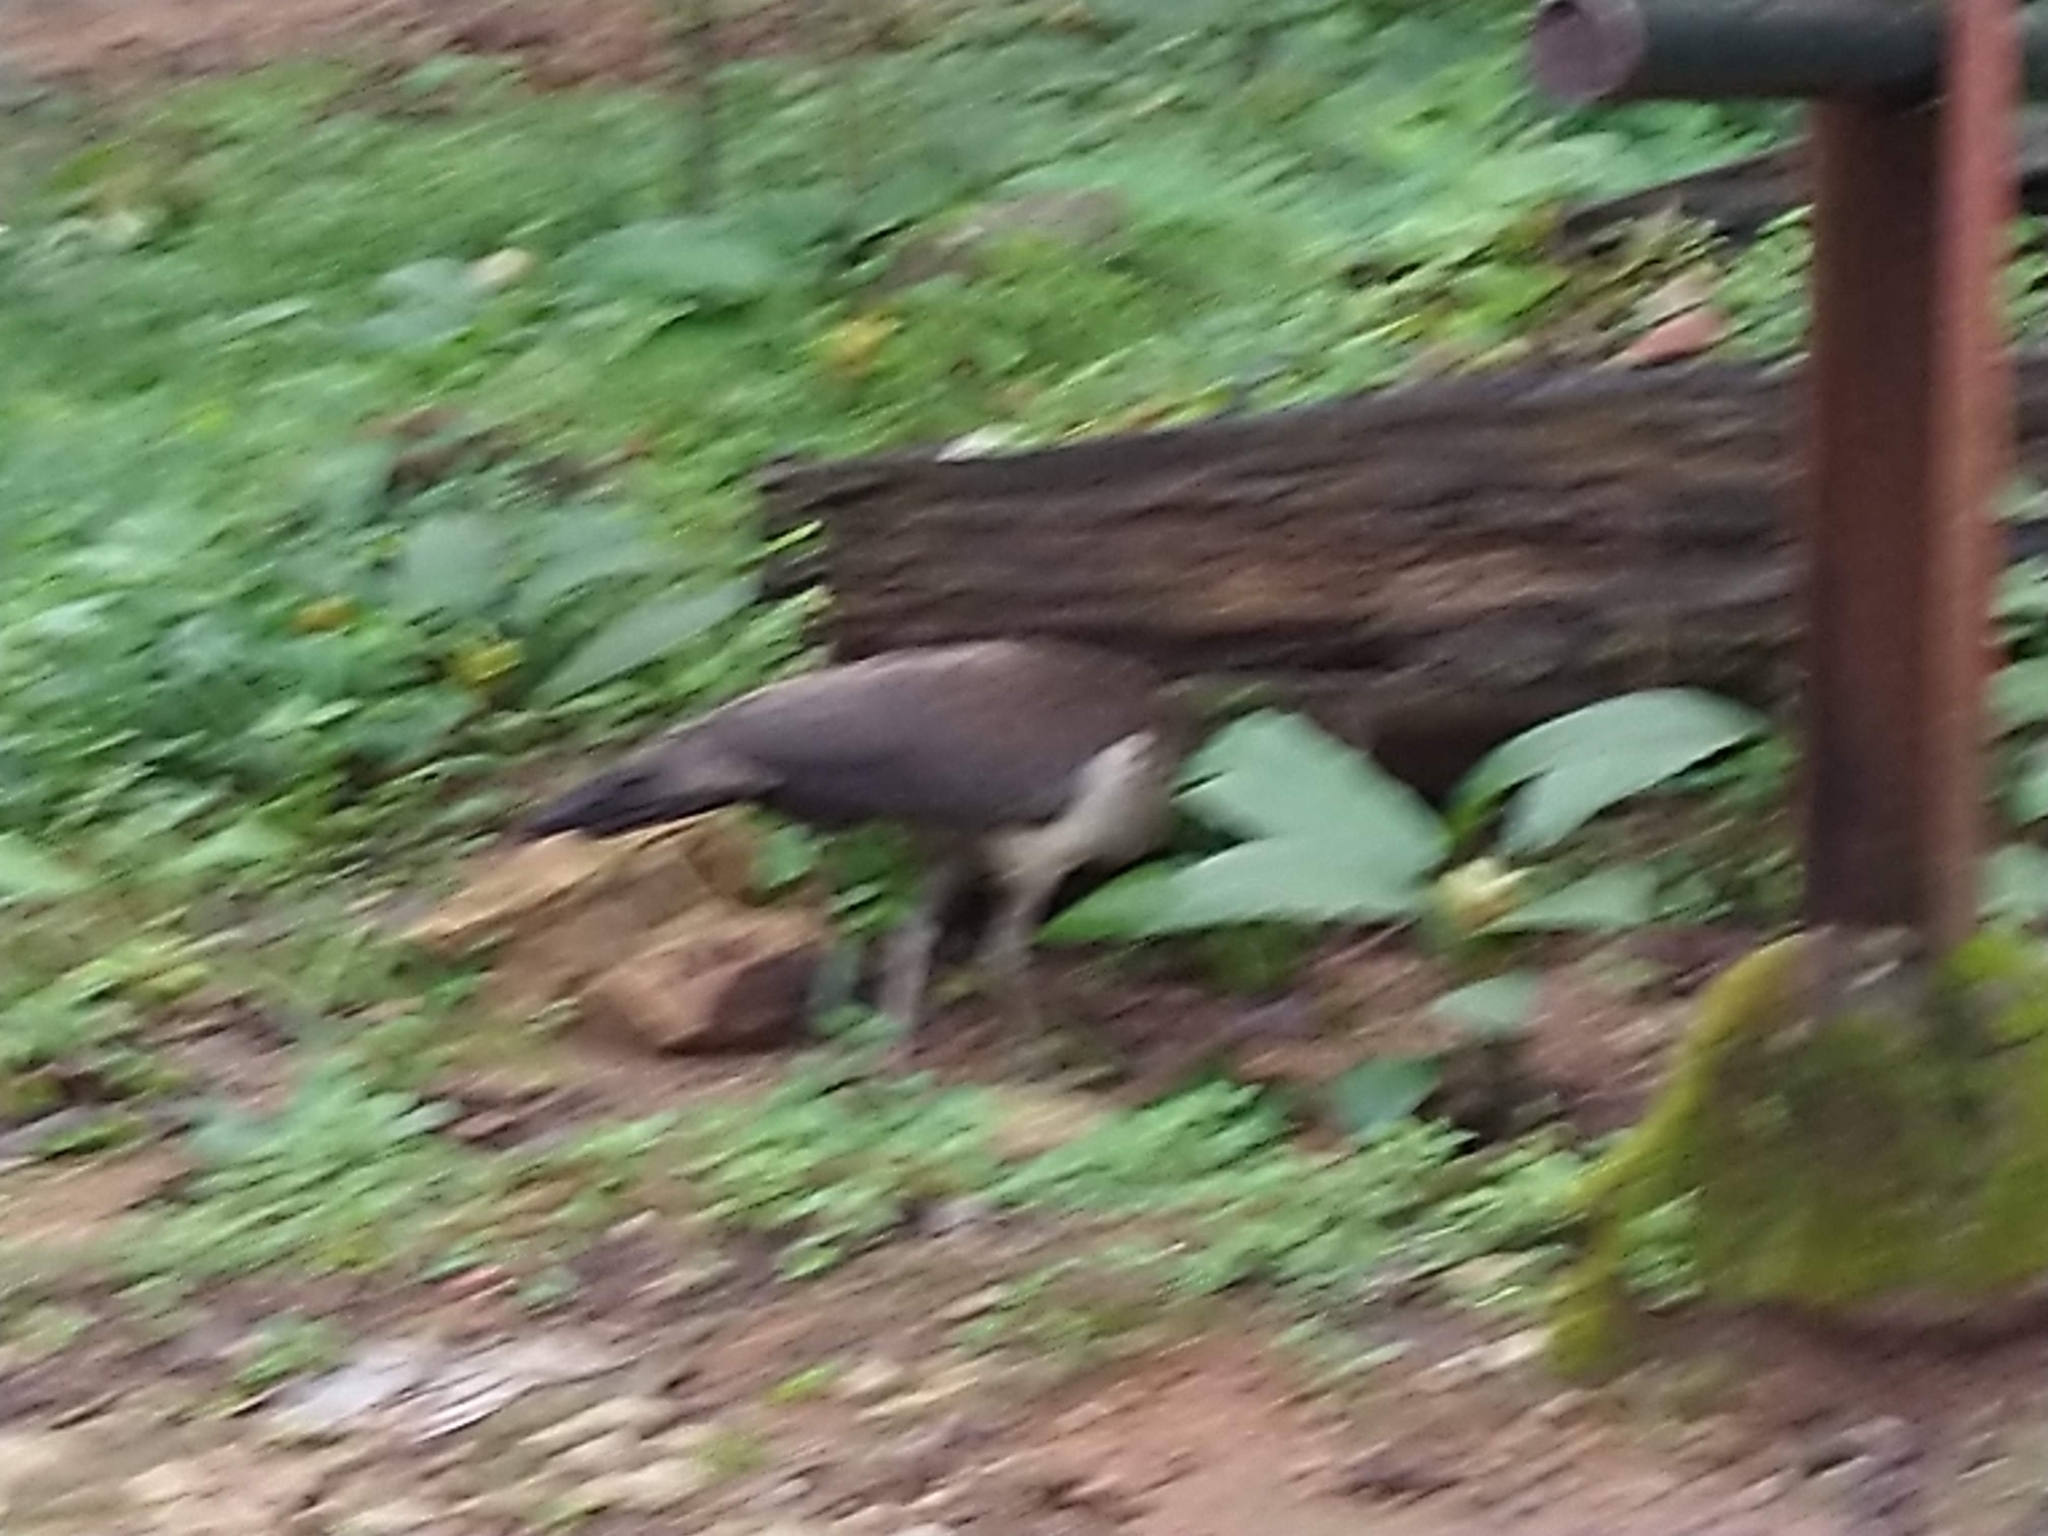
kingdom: Animalia
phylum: Chordata
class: Aves
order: Galliformes
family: Phasianidae
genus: Pavo
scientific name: Pavo cristatus
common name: Indian peafowl
